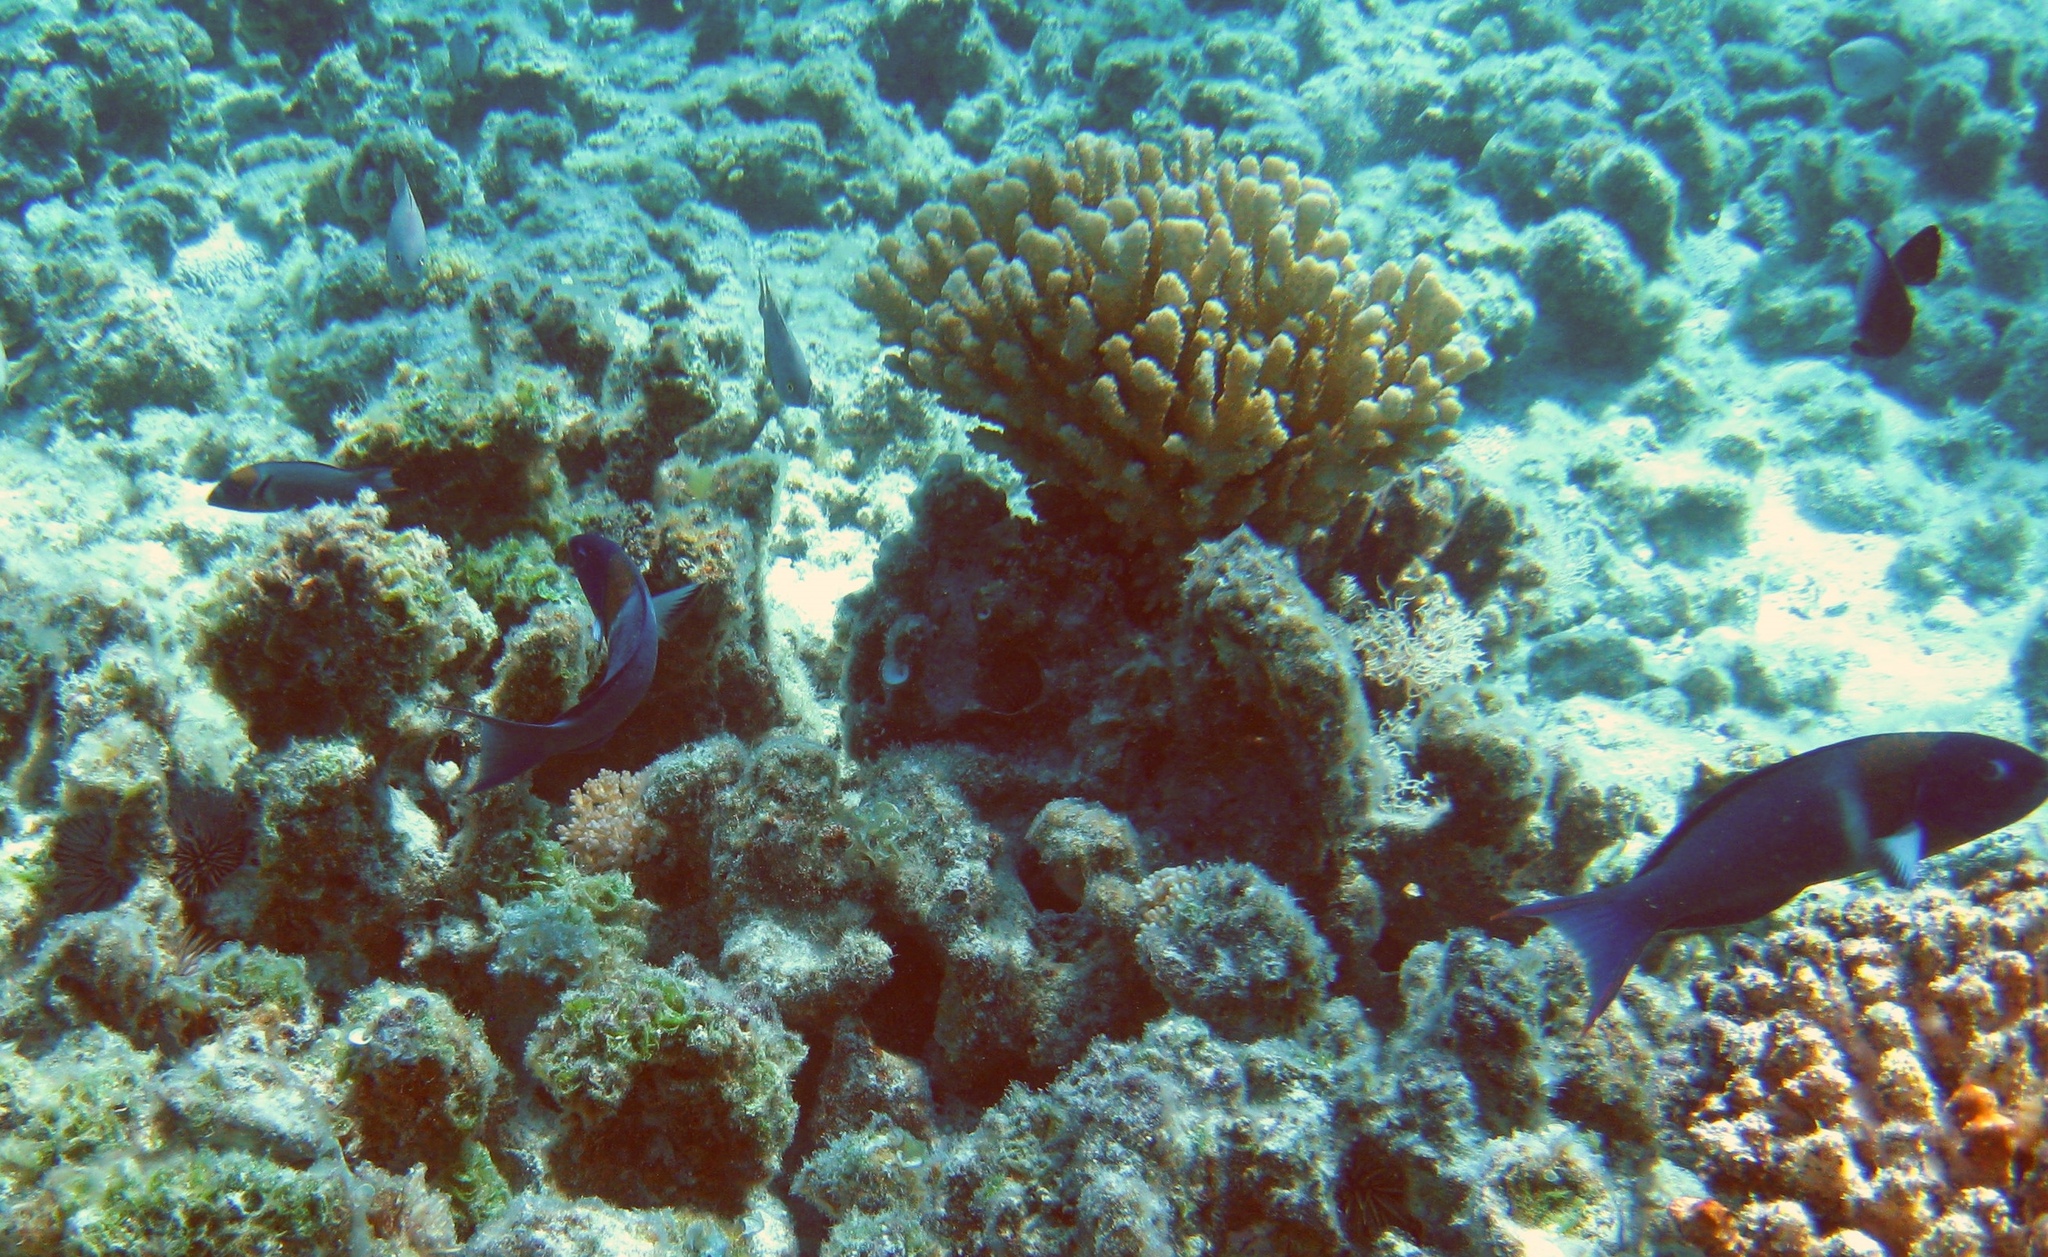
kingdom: Animalia
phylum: Chordata
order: Perciformes
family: Labridae
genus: Thalassoma
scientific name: Thalassoma duperrey
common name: Saddle wrasse
